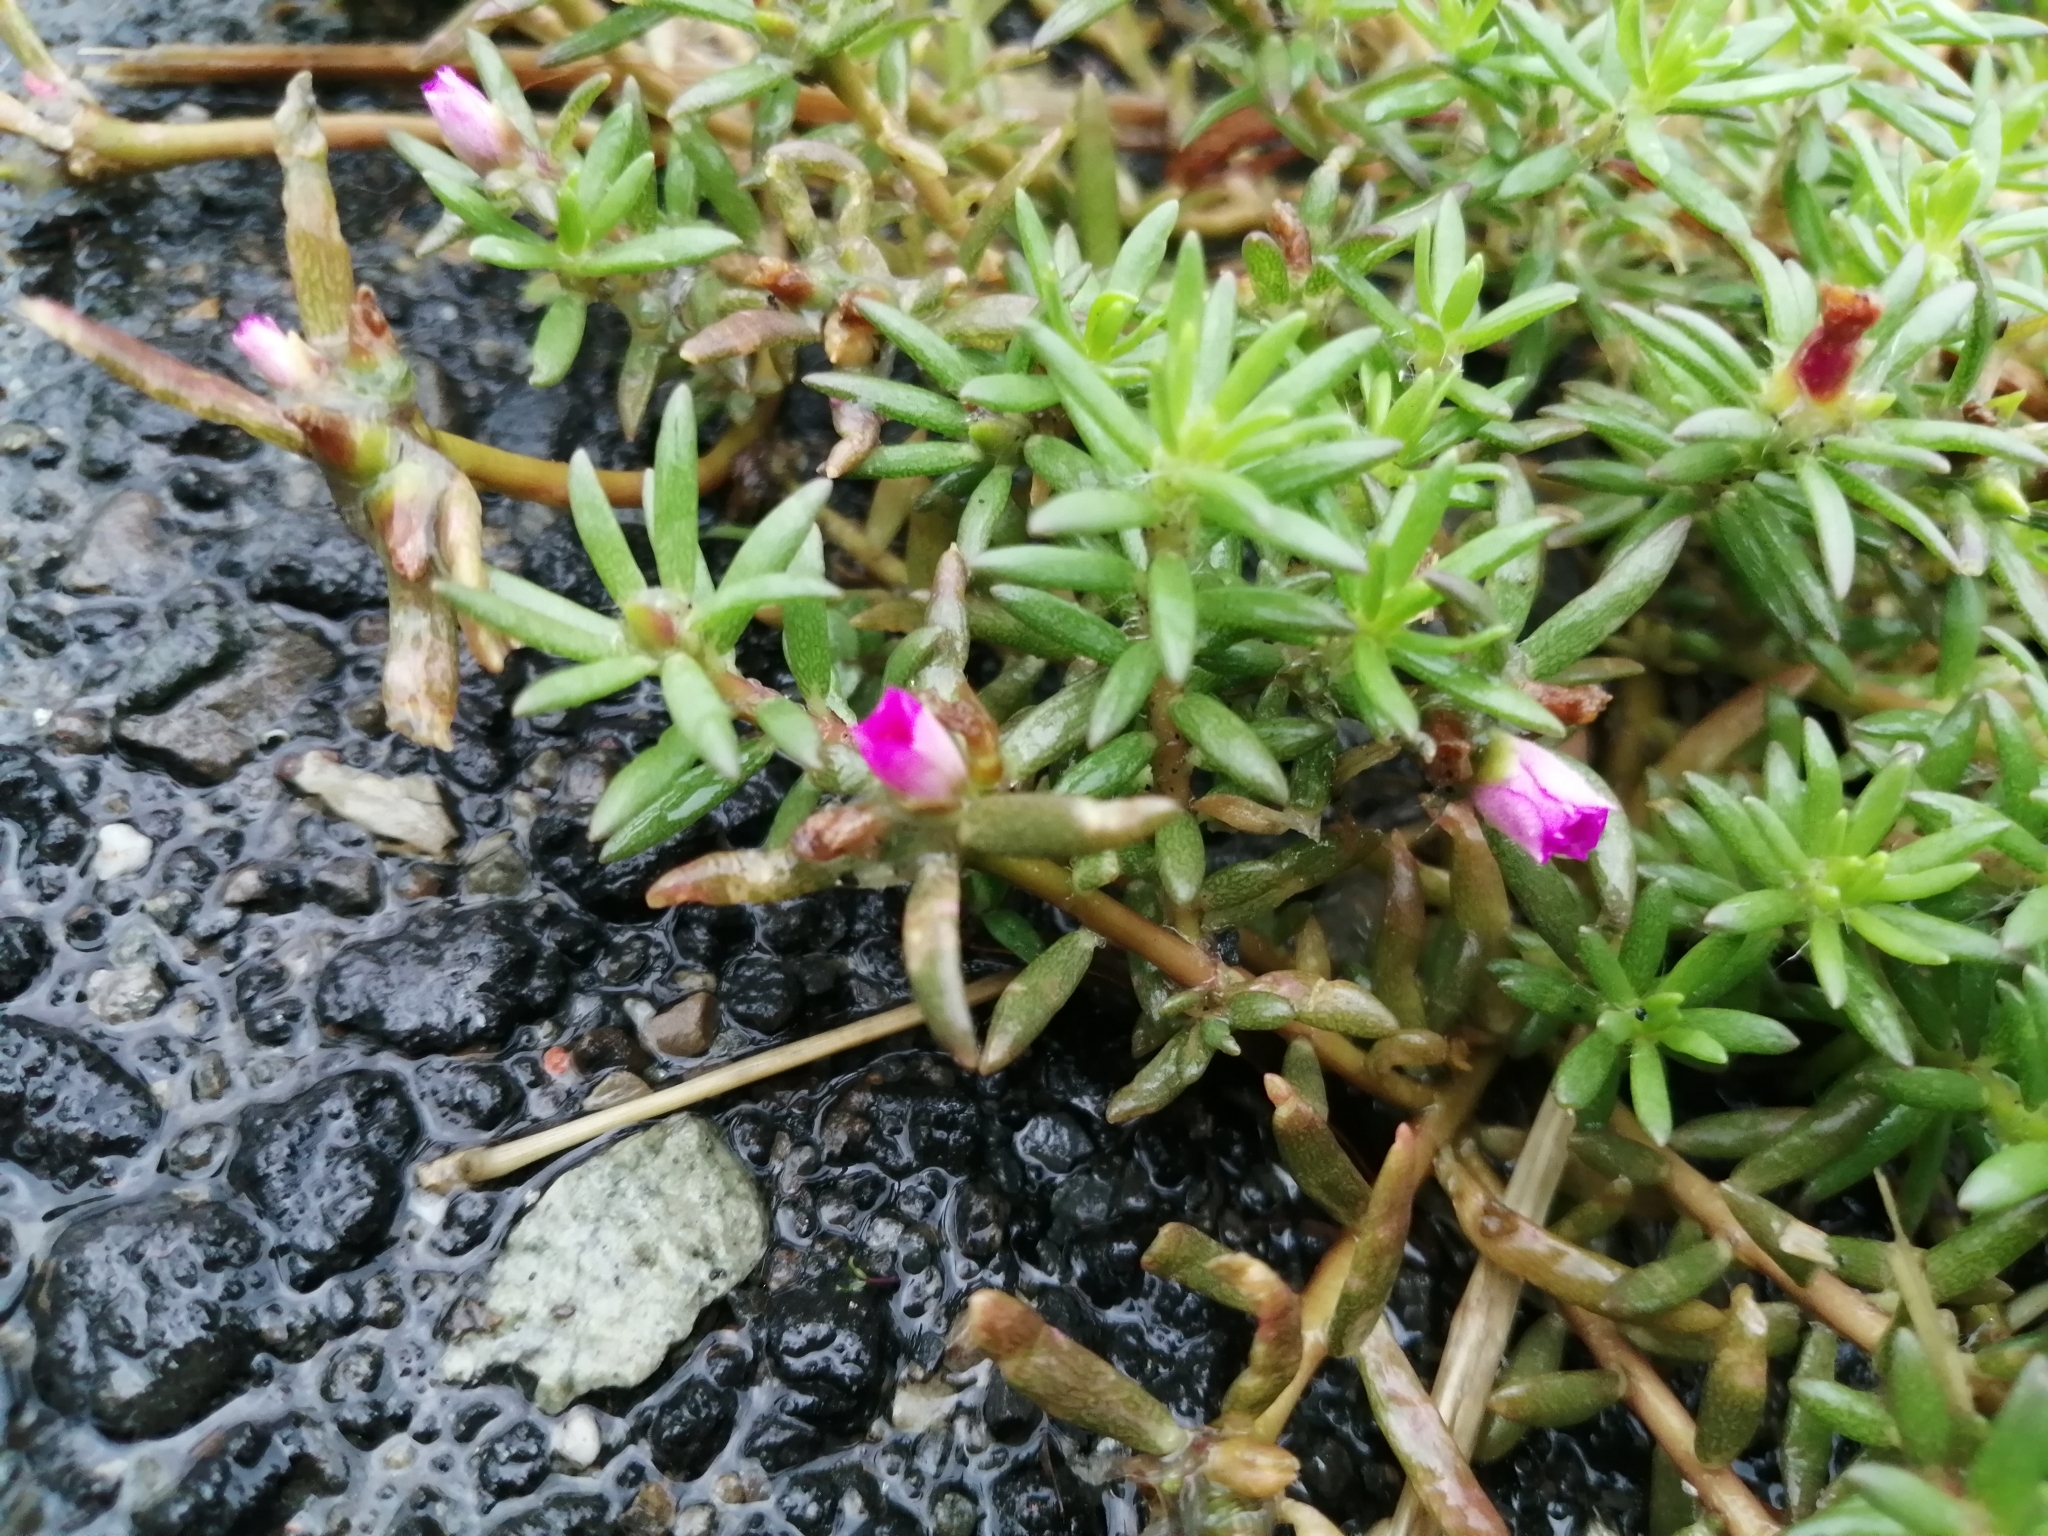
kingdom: Plantae
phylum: Tracheophyta
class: Magnoliopsida
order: Caryophyllales
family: Portulacaceae
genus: Portulaca
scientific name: Portulaca pilosa
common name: Kiss me quick
